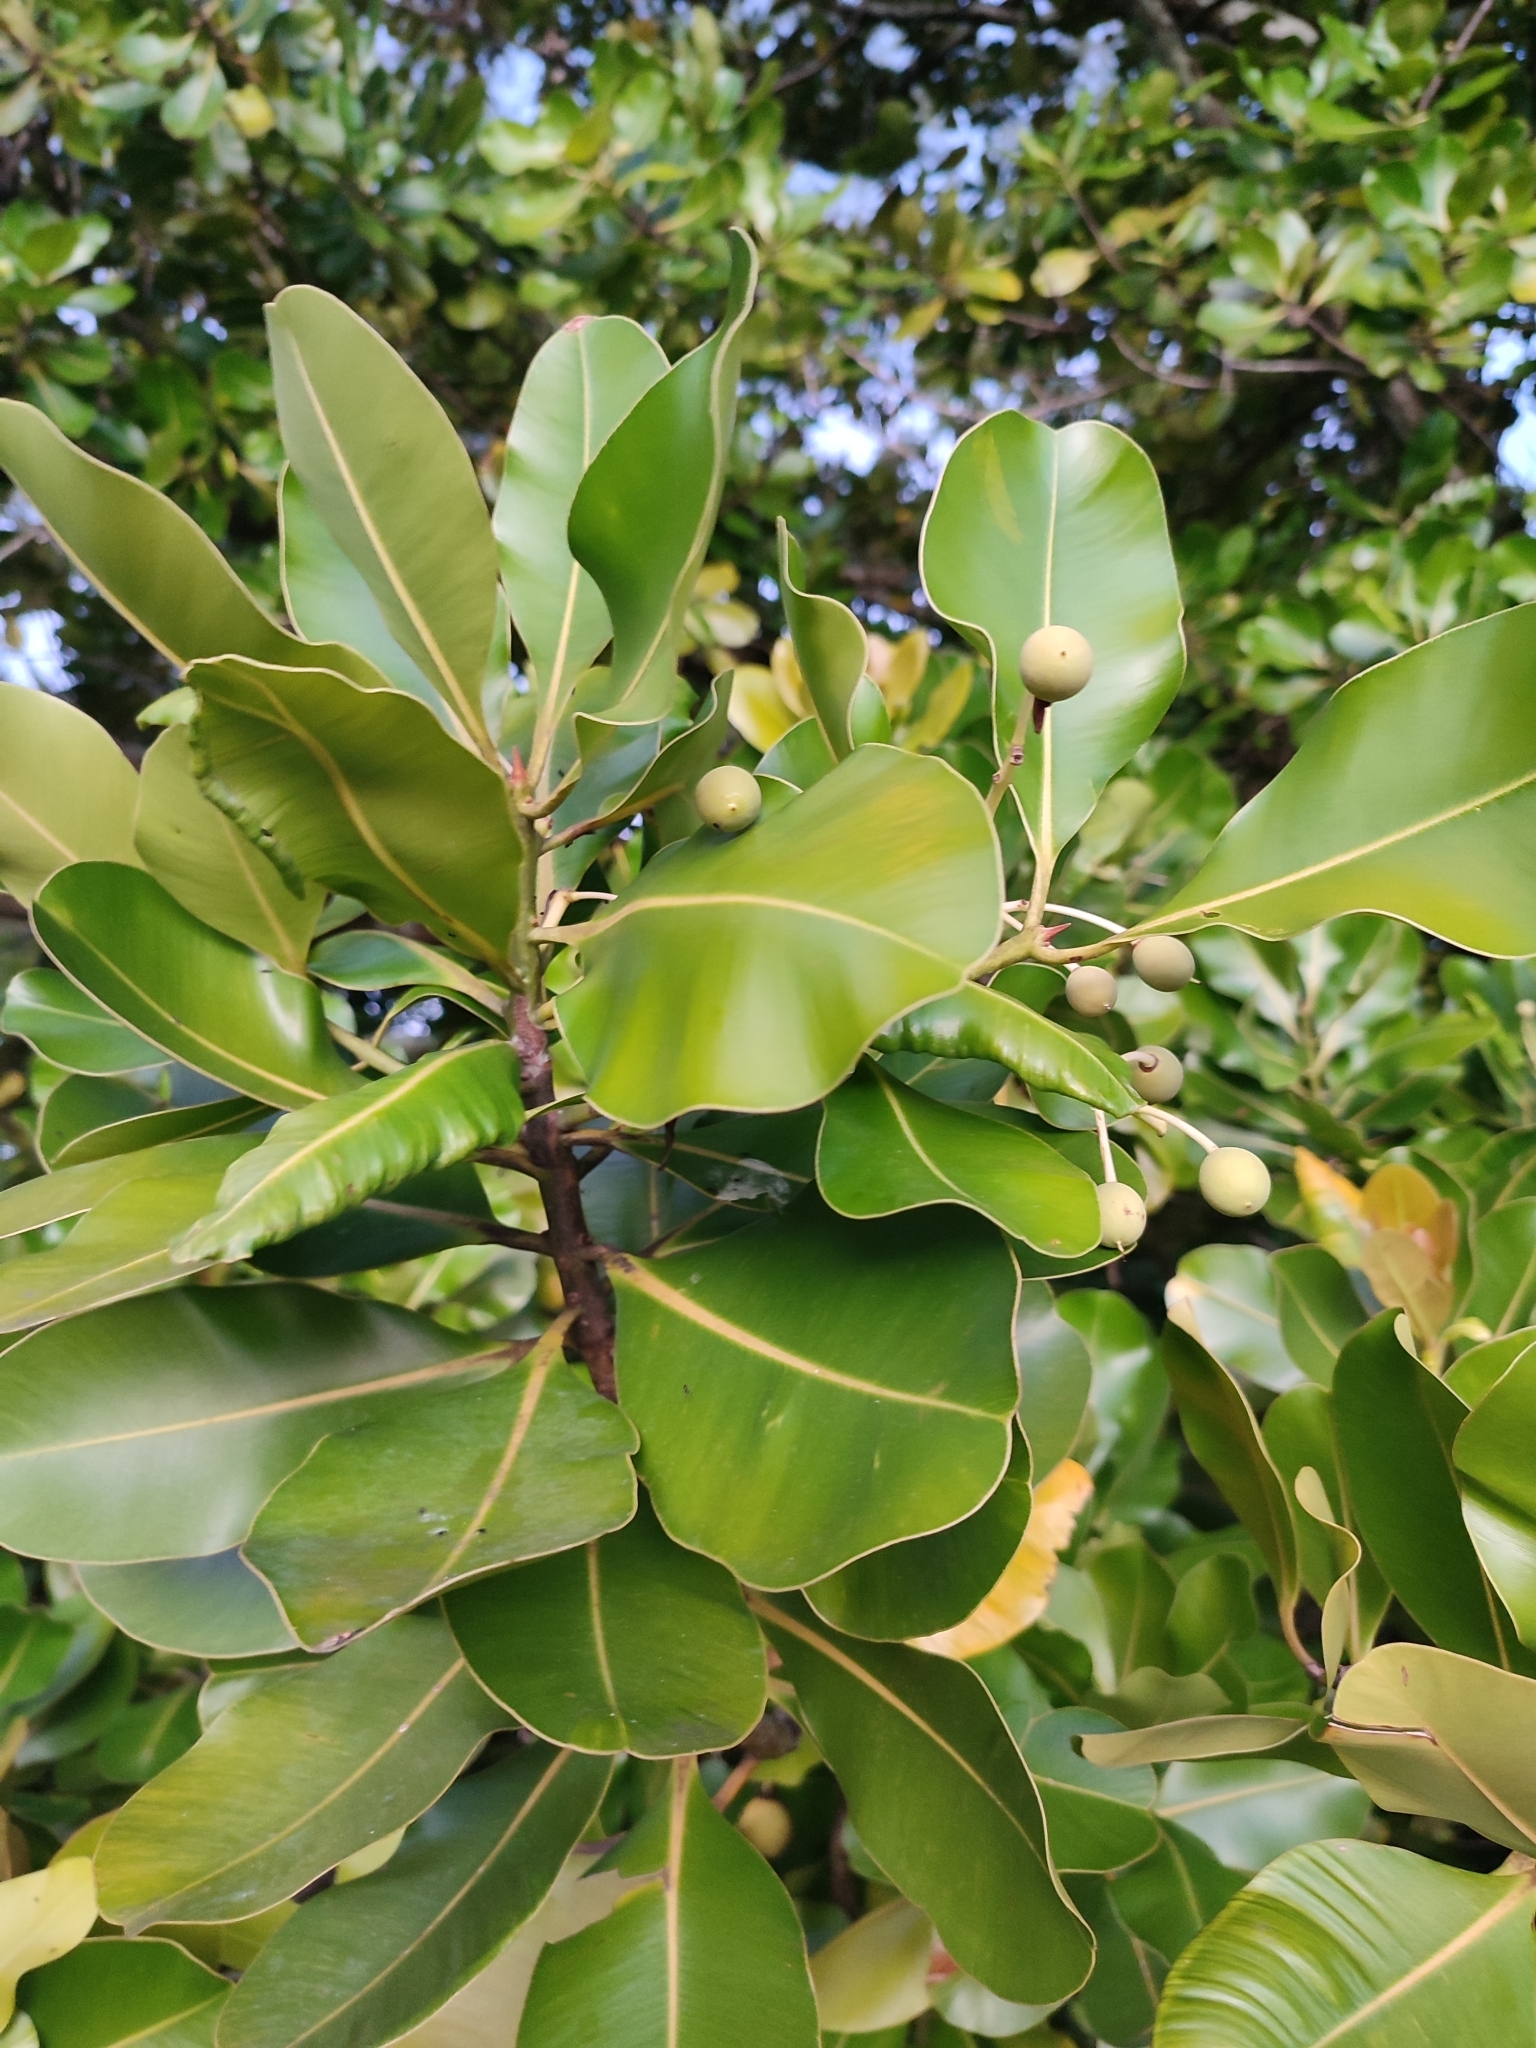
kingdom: Plantae
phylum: Tracheophyta
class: Magnoliopsida
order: Malpighiales
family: Calophyllaceae
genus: Calophyllum
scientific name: Calophyllum inophyllum
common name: Alexandrian laurel
